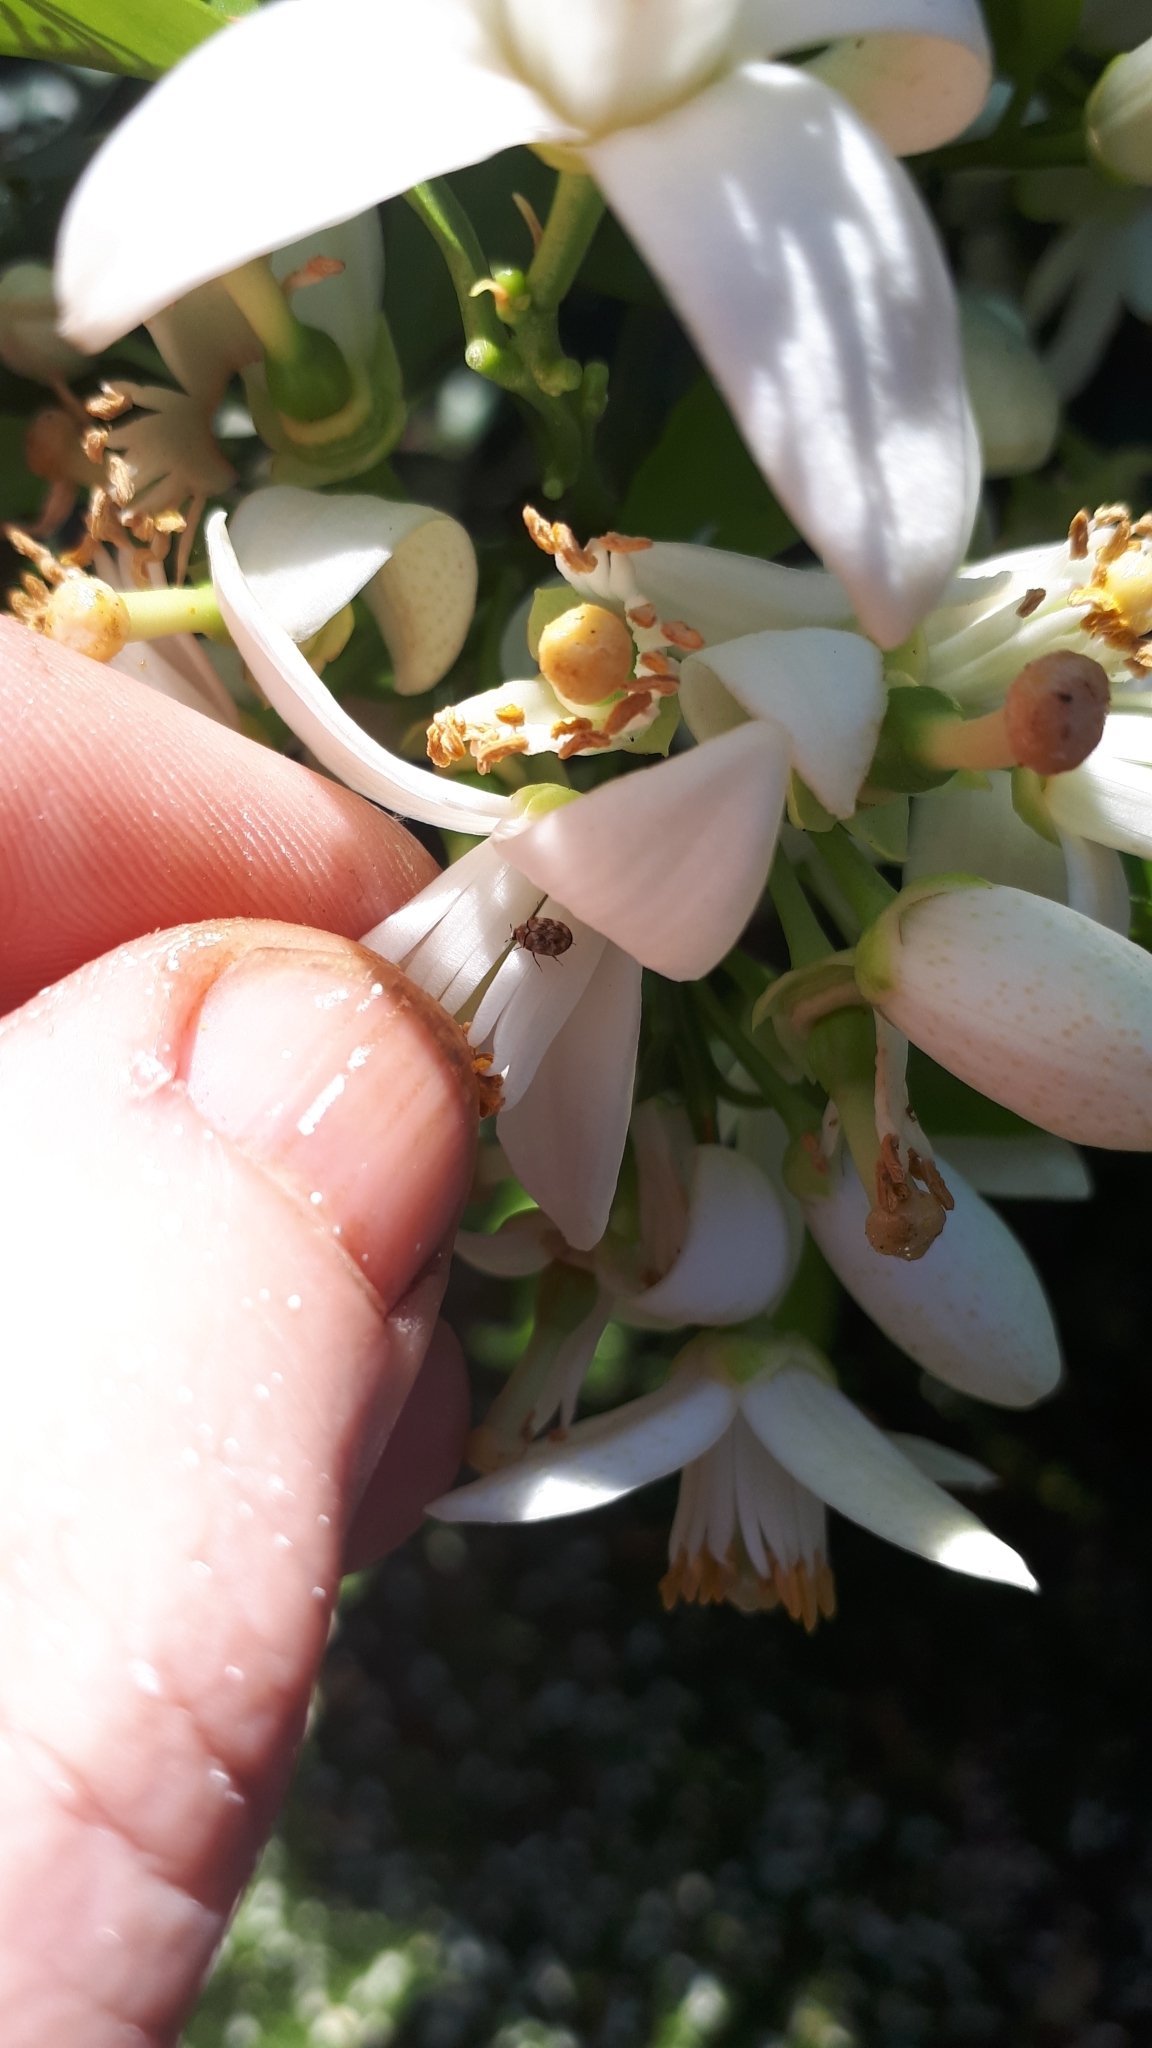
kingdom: Animalia
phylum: Arthropoda
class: Insecta
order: Coleoptera
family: Dermestidae
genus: Anthrenus
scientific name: Anthrenus verbasci
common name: Varied carpet beetle
